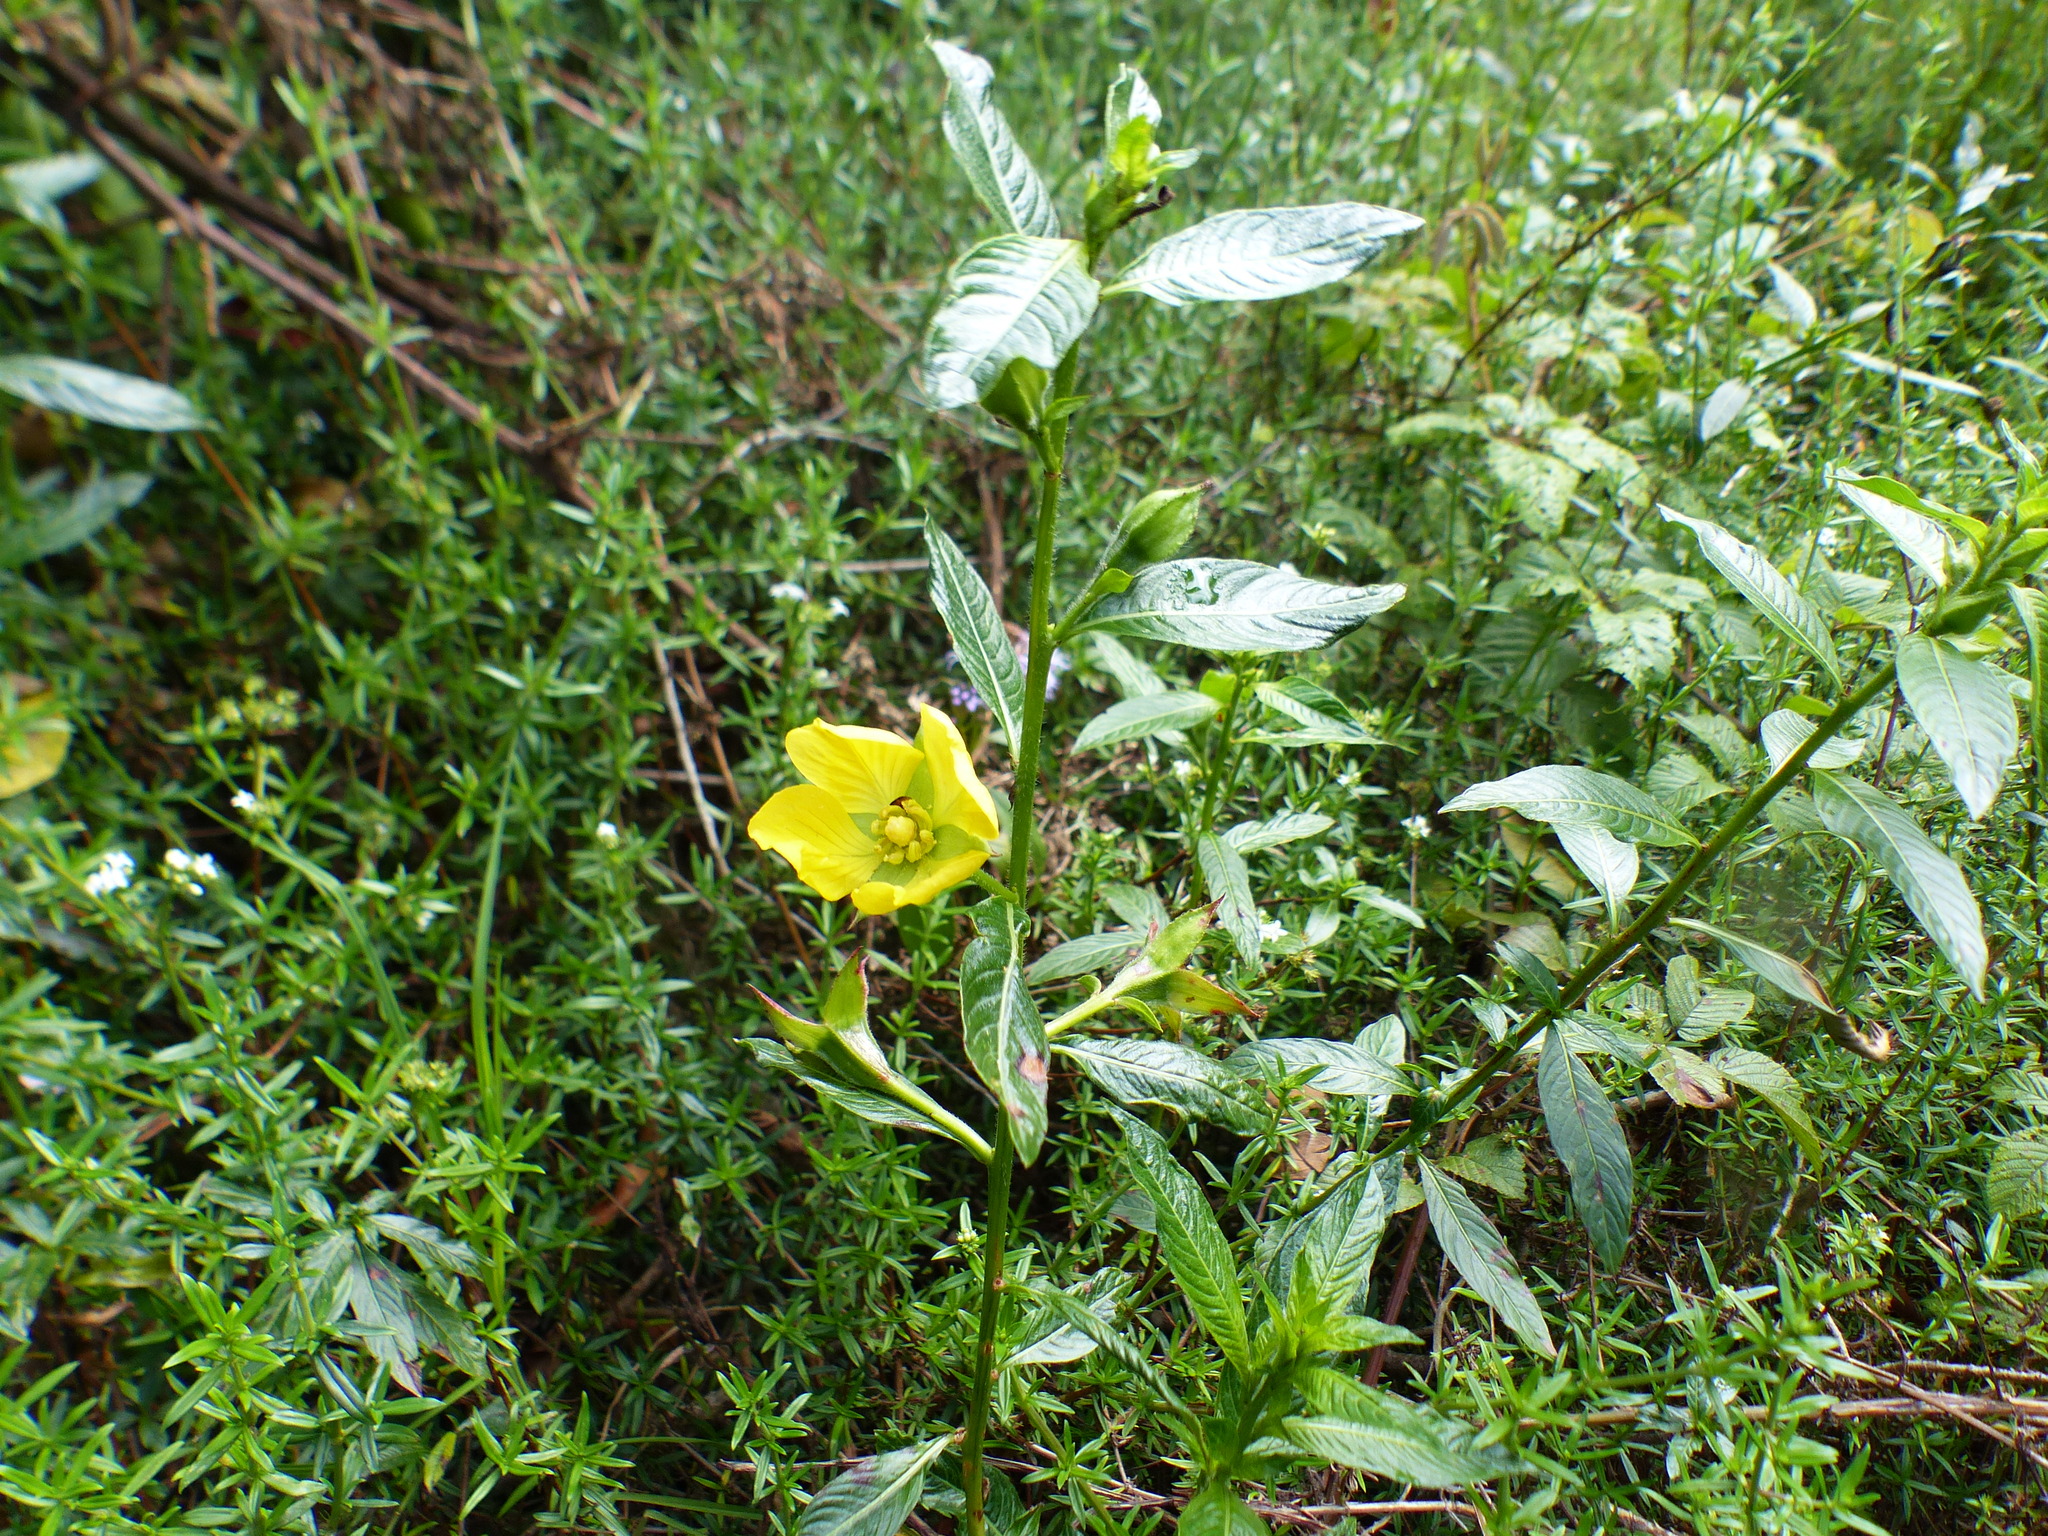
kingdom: Plantae
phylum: Tracheophyta
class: Magnoliopsida
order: Myrtales
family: Onagraceae
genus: Ludwigia
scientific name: Ludwigia peruviana
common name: Peruvian primrose-willow
